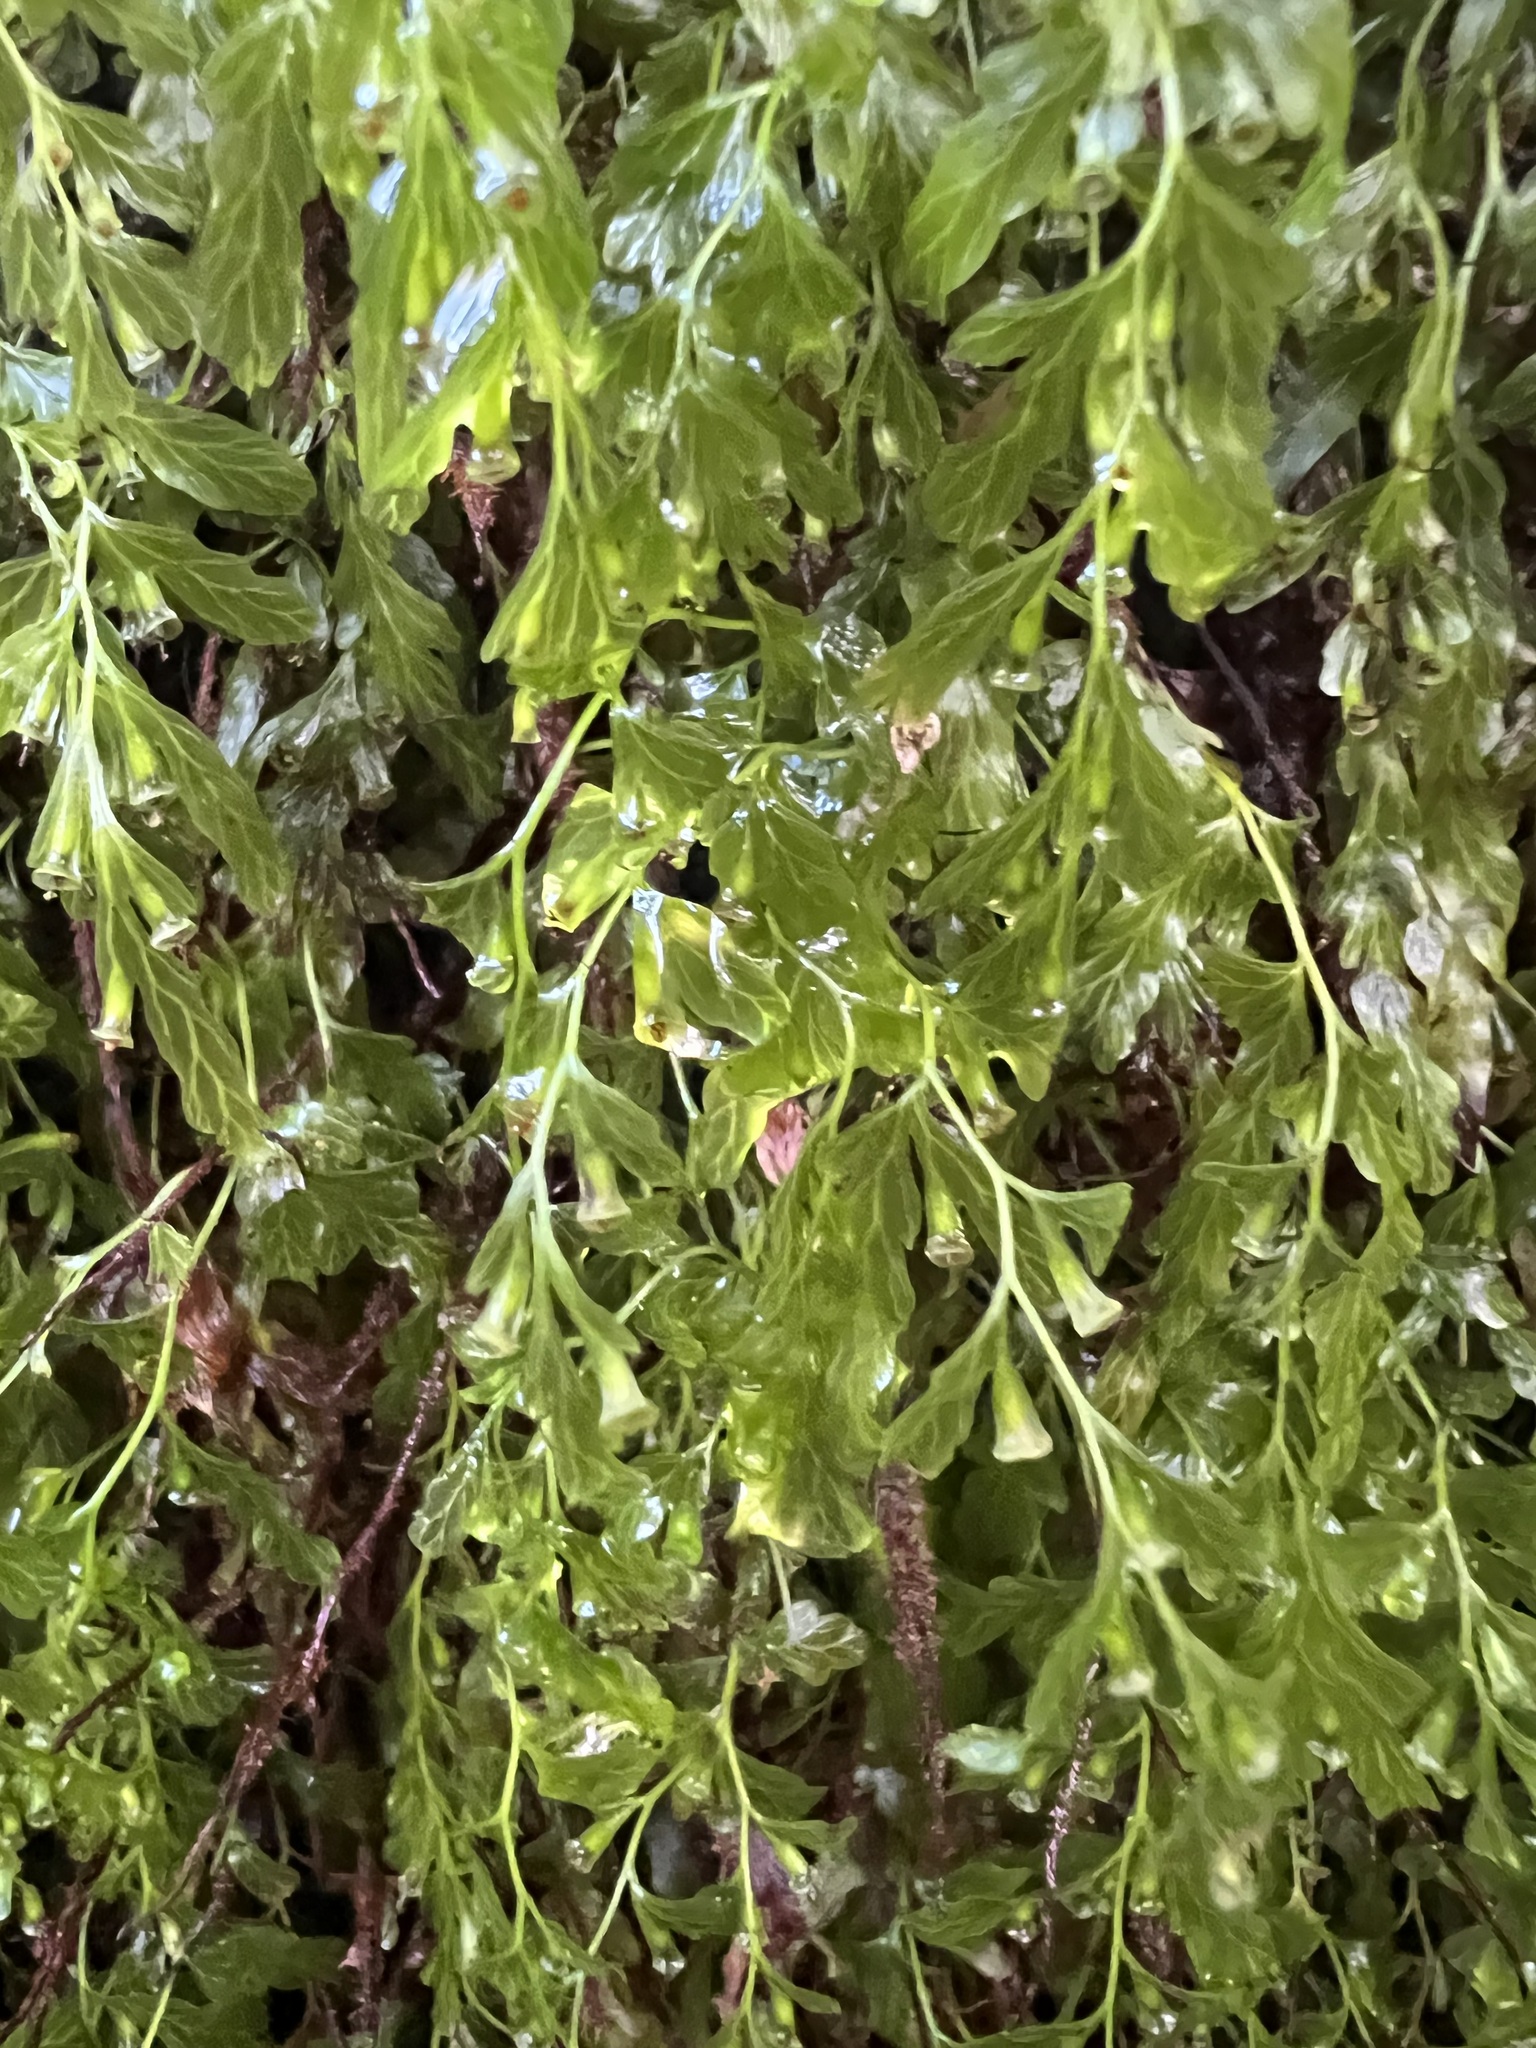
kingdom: Plantae
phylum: Tracheophyta
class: Polypodiopsida
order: Hymenophyllales
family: Hymenophyllaceae
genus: Polyphlebium
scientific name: Polyphlebium venosum
